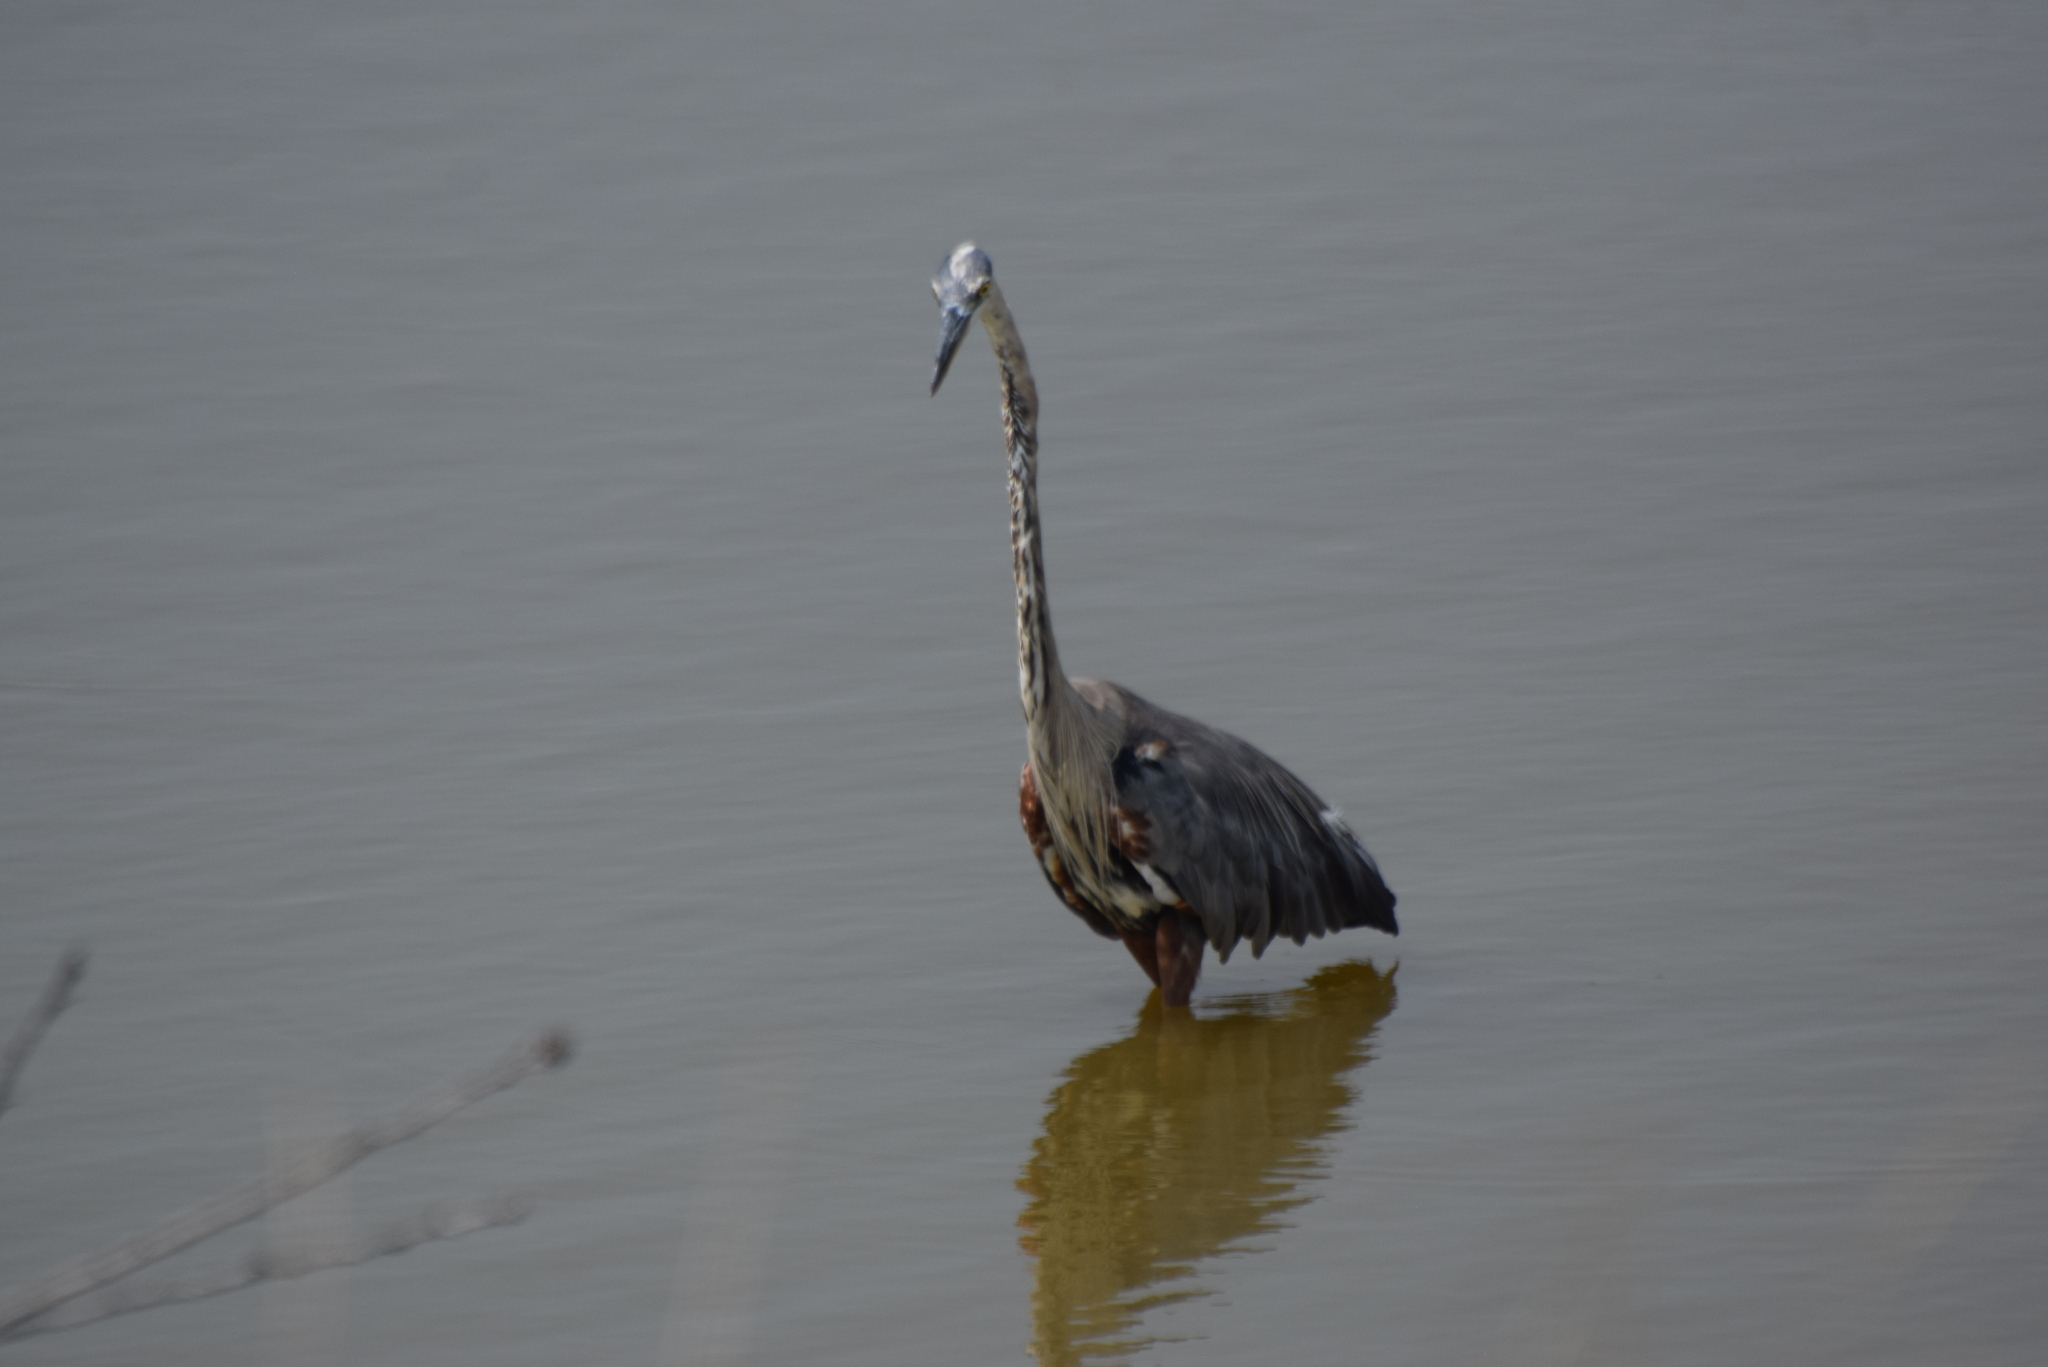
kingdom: Animalia
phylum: Chordata
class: Aves
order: Pelecaniformes
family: Ardeidae
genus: Ardea
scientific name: Ardea herodias
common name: Great blue heron
